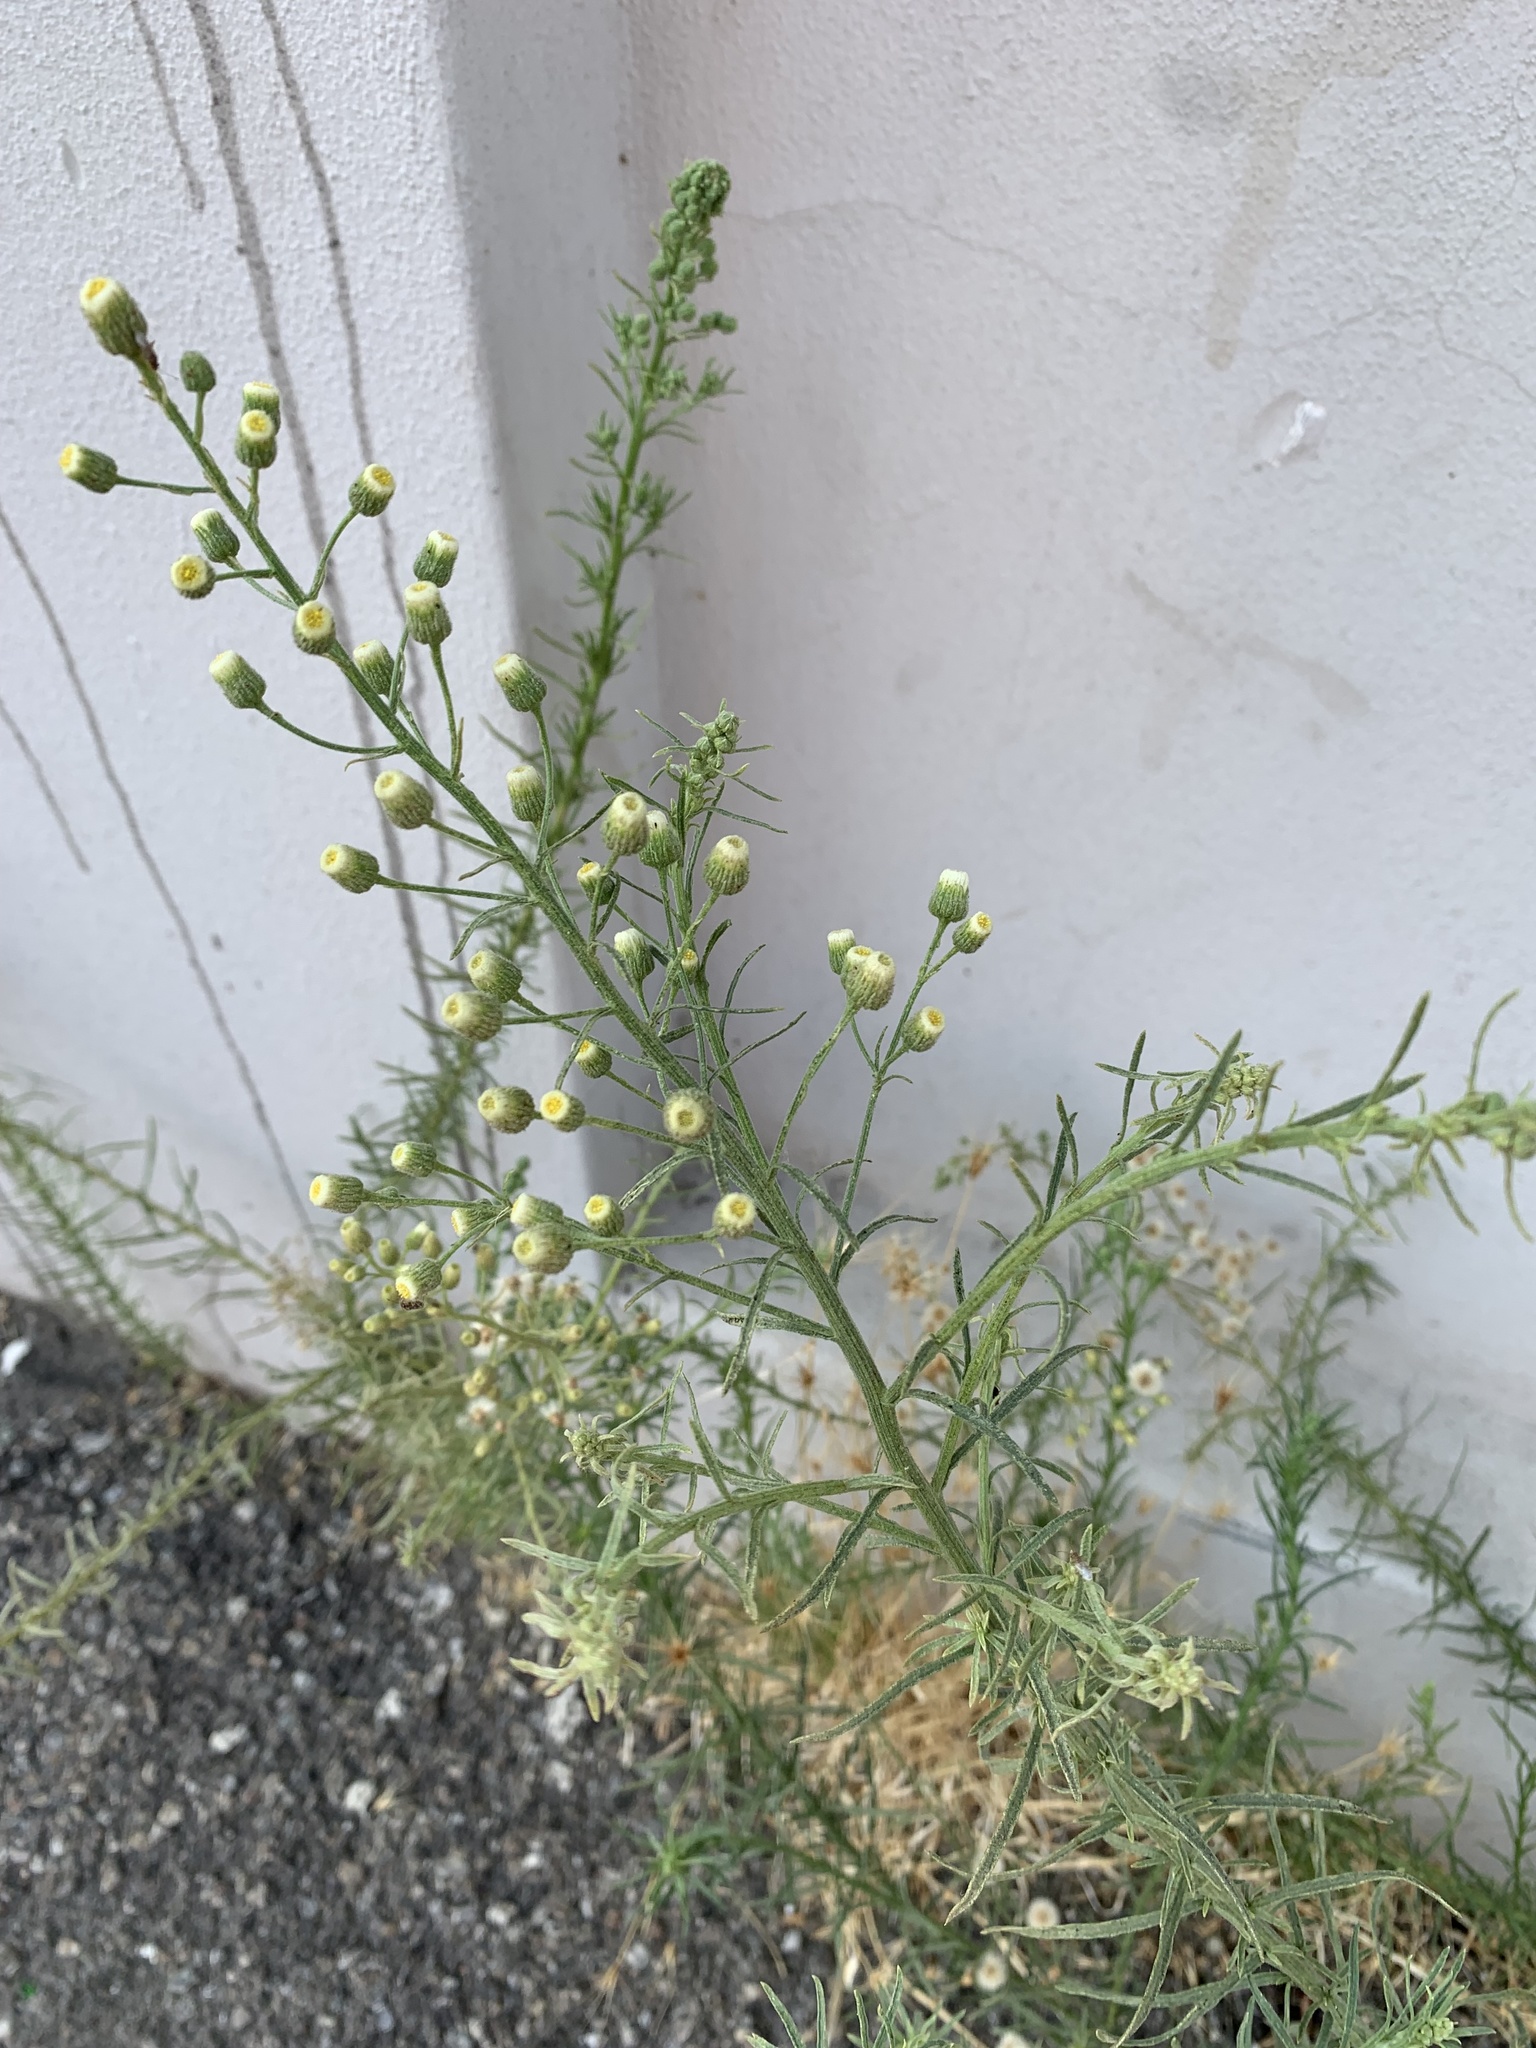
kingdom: Plantae
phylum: Tracheophyta
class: Magnoliopsida
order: Asterales
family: Asteraceae
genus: Erigeron
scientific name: Erigeron bonariensis
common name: Argentine fleabane
